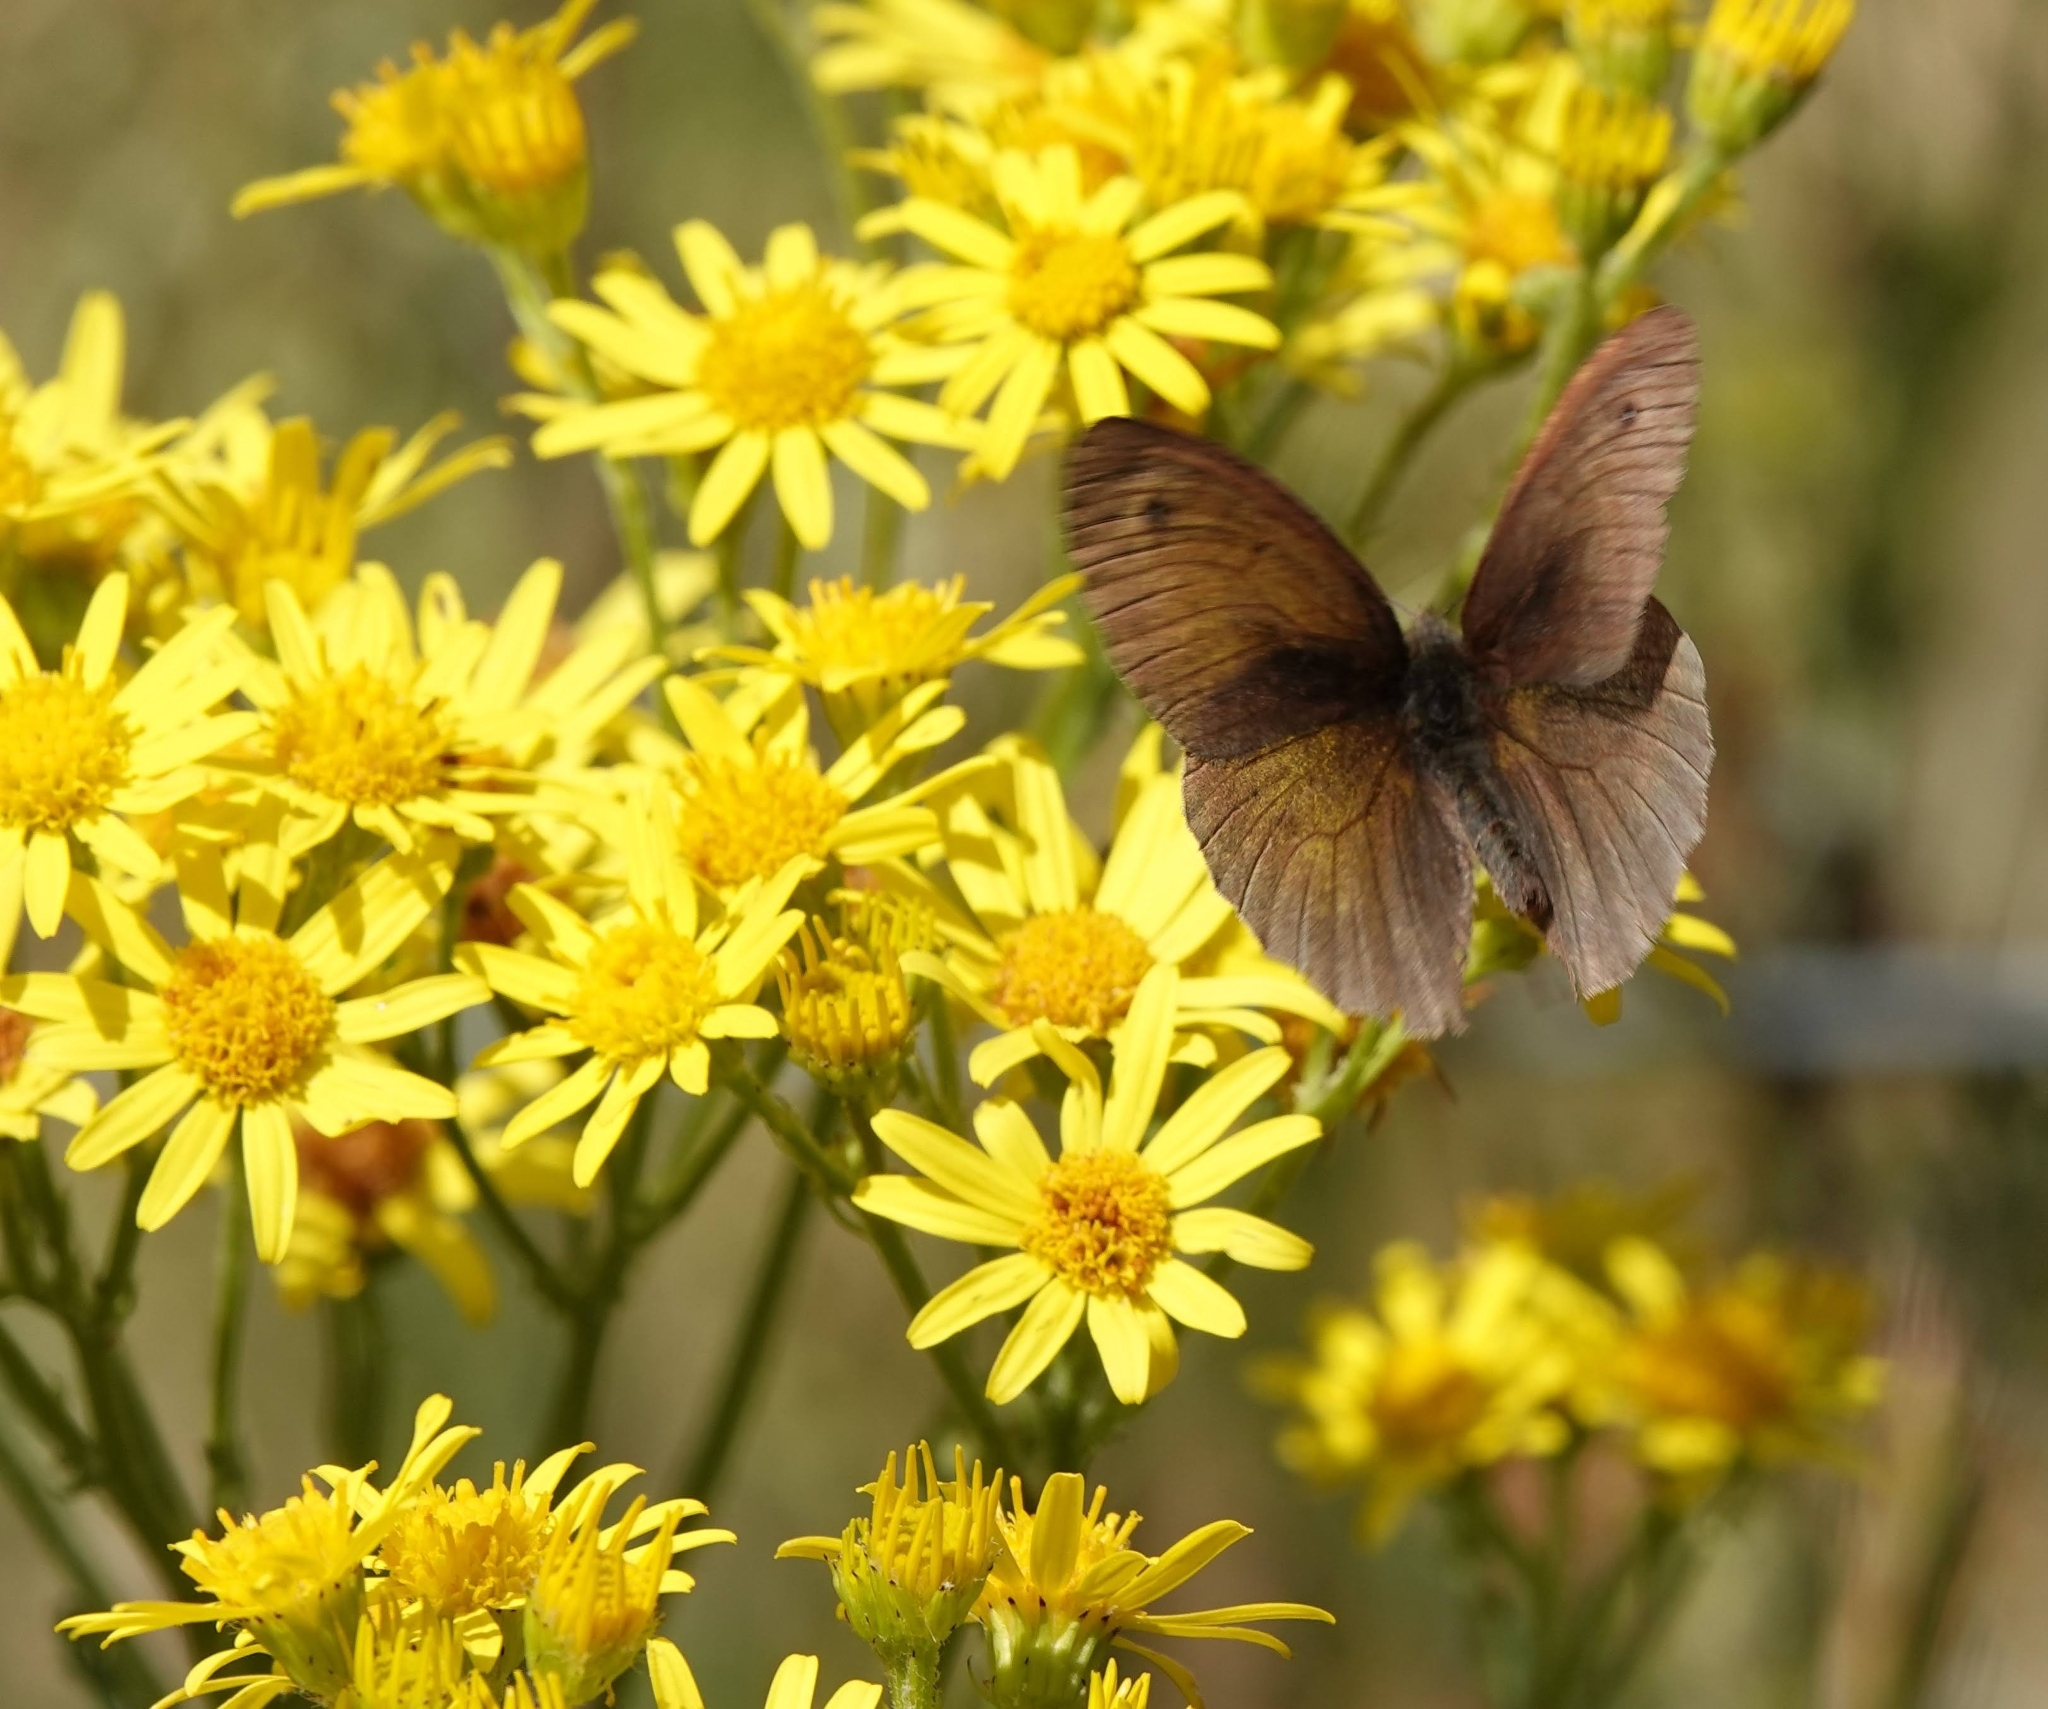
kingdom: Animalia
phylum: Arthropoda
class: Insecta
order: Lepidoptera
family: Nymphalidae
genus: Maniola
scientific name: Maniola jurtina
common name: Meadow brown
